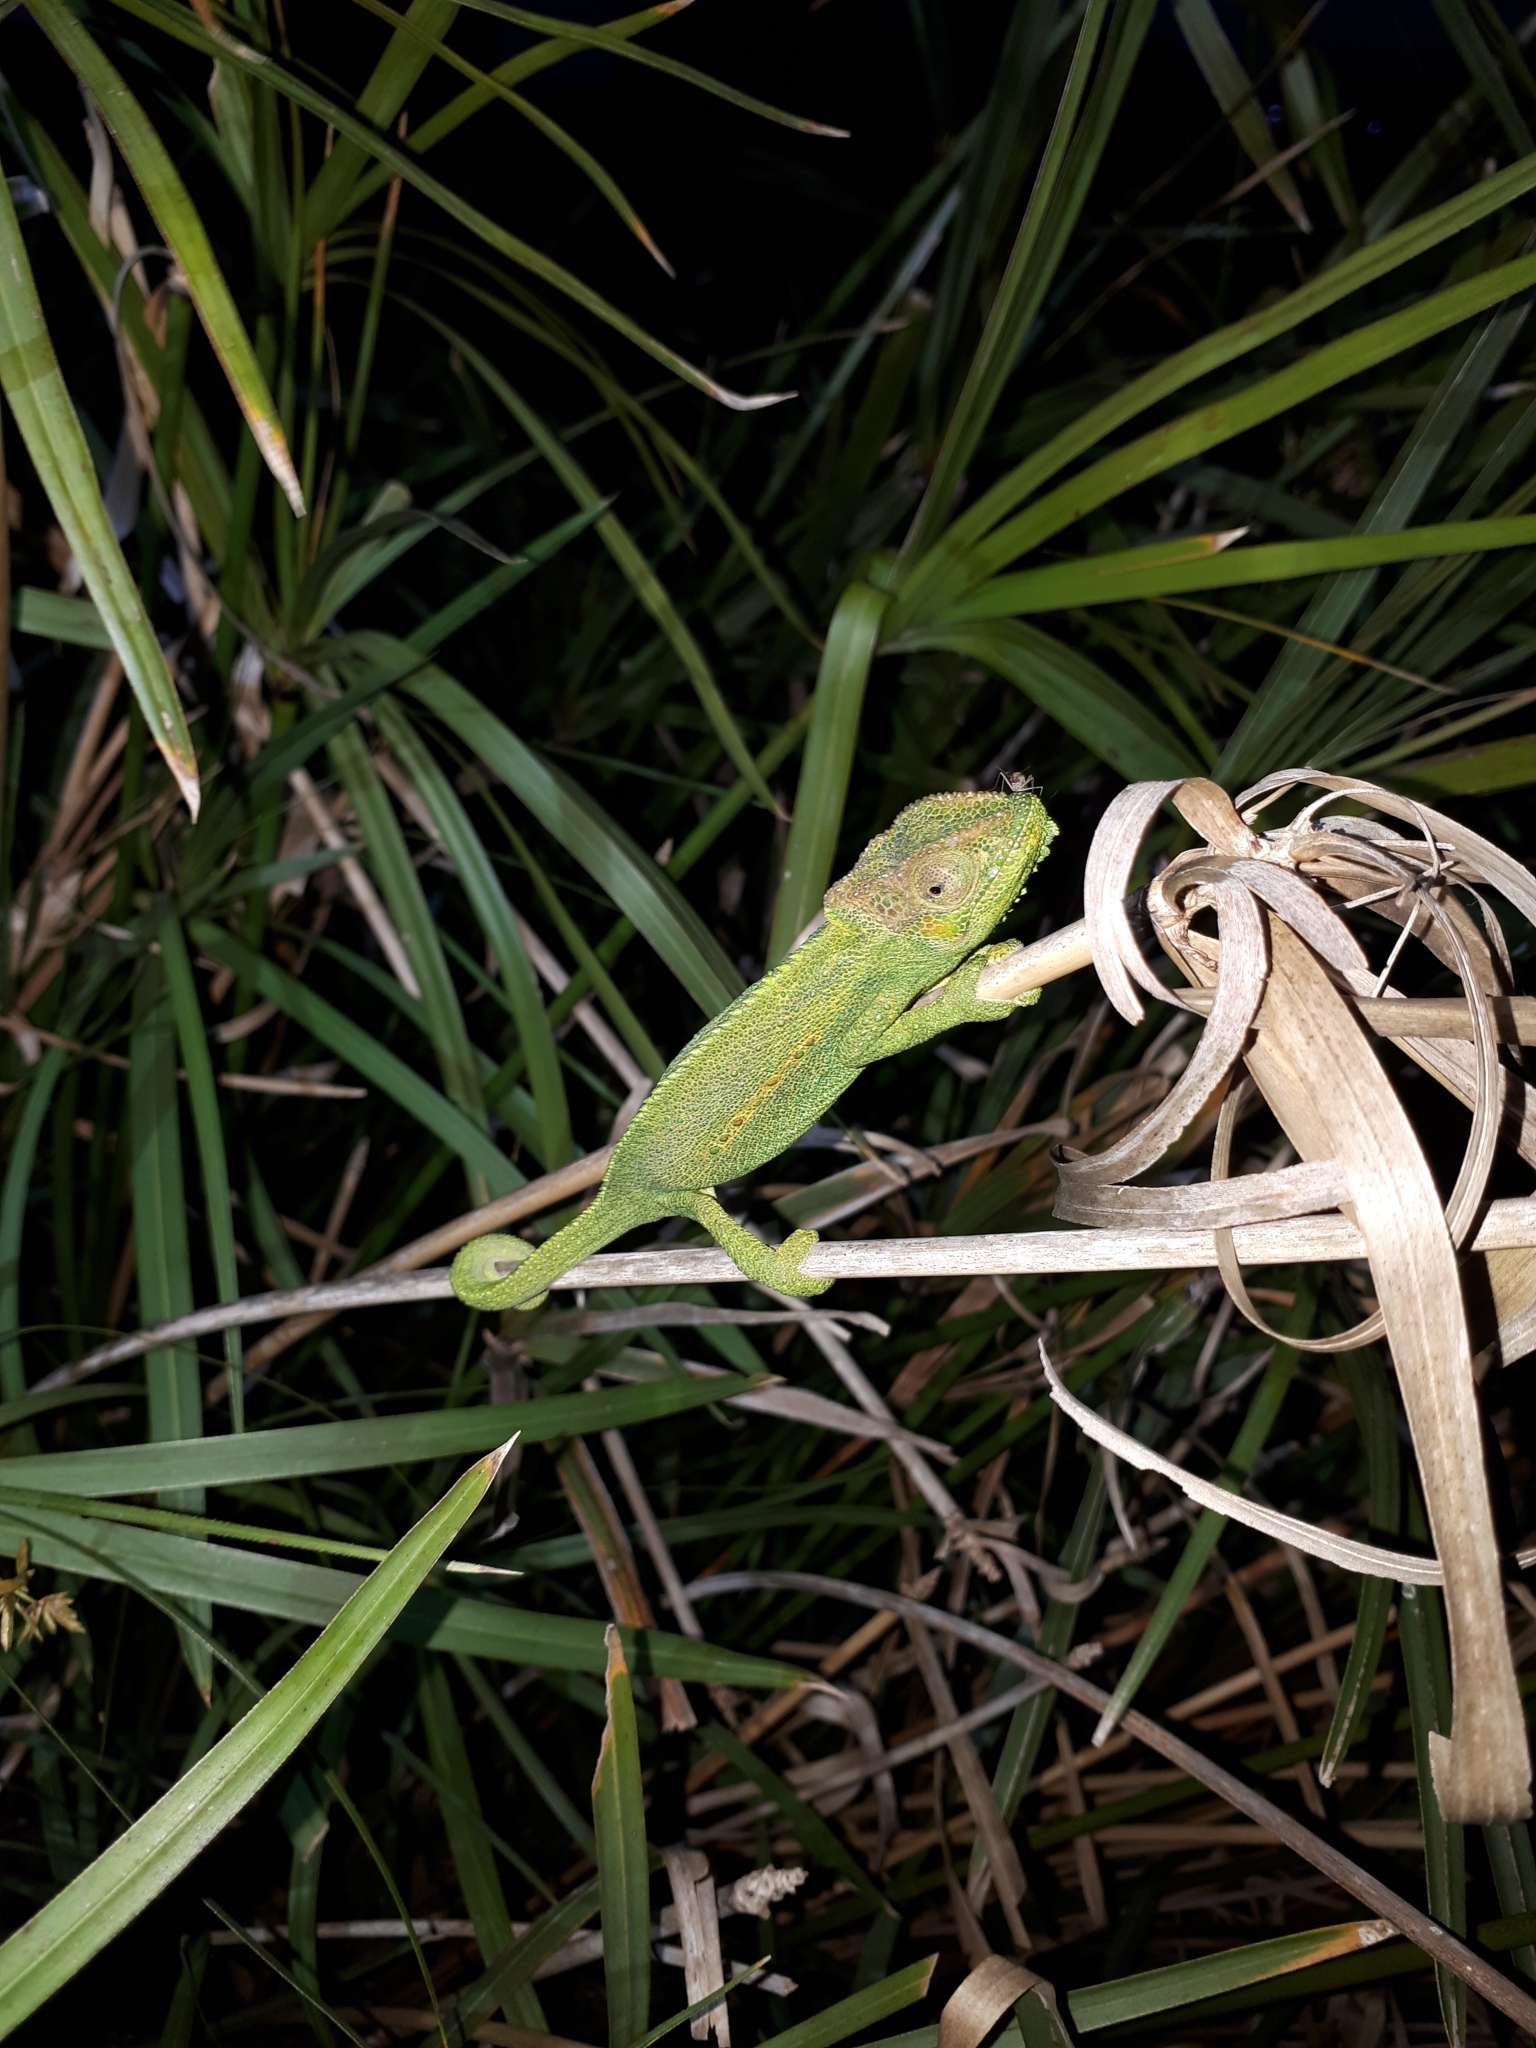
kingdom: Animalia
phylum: Chordata
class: Squamata
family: Chamaeleonidae
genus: Bradypodion
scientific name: Bradypodion pumilum
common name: Cape dwarf chameleon
